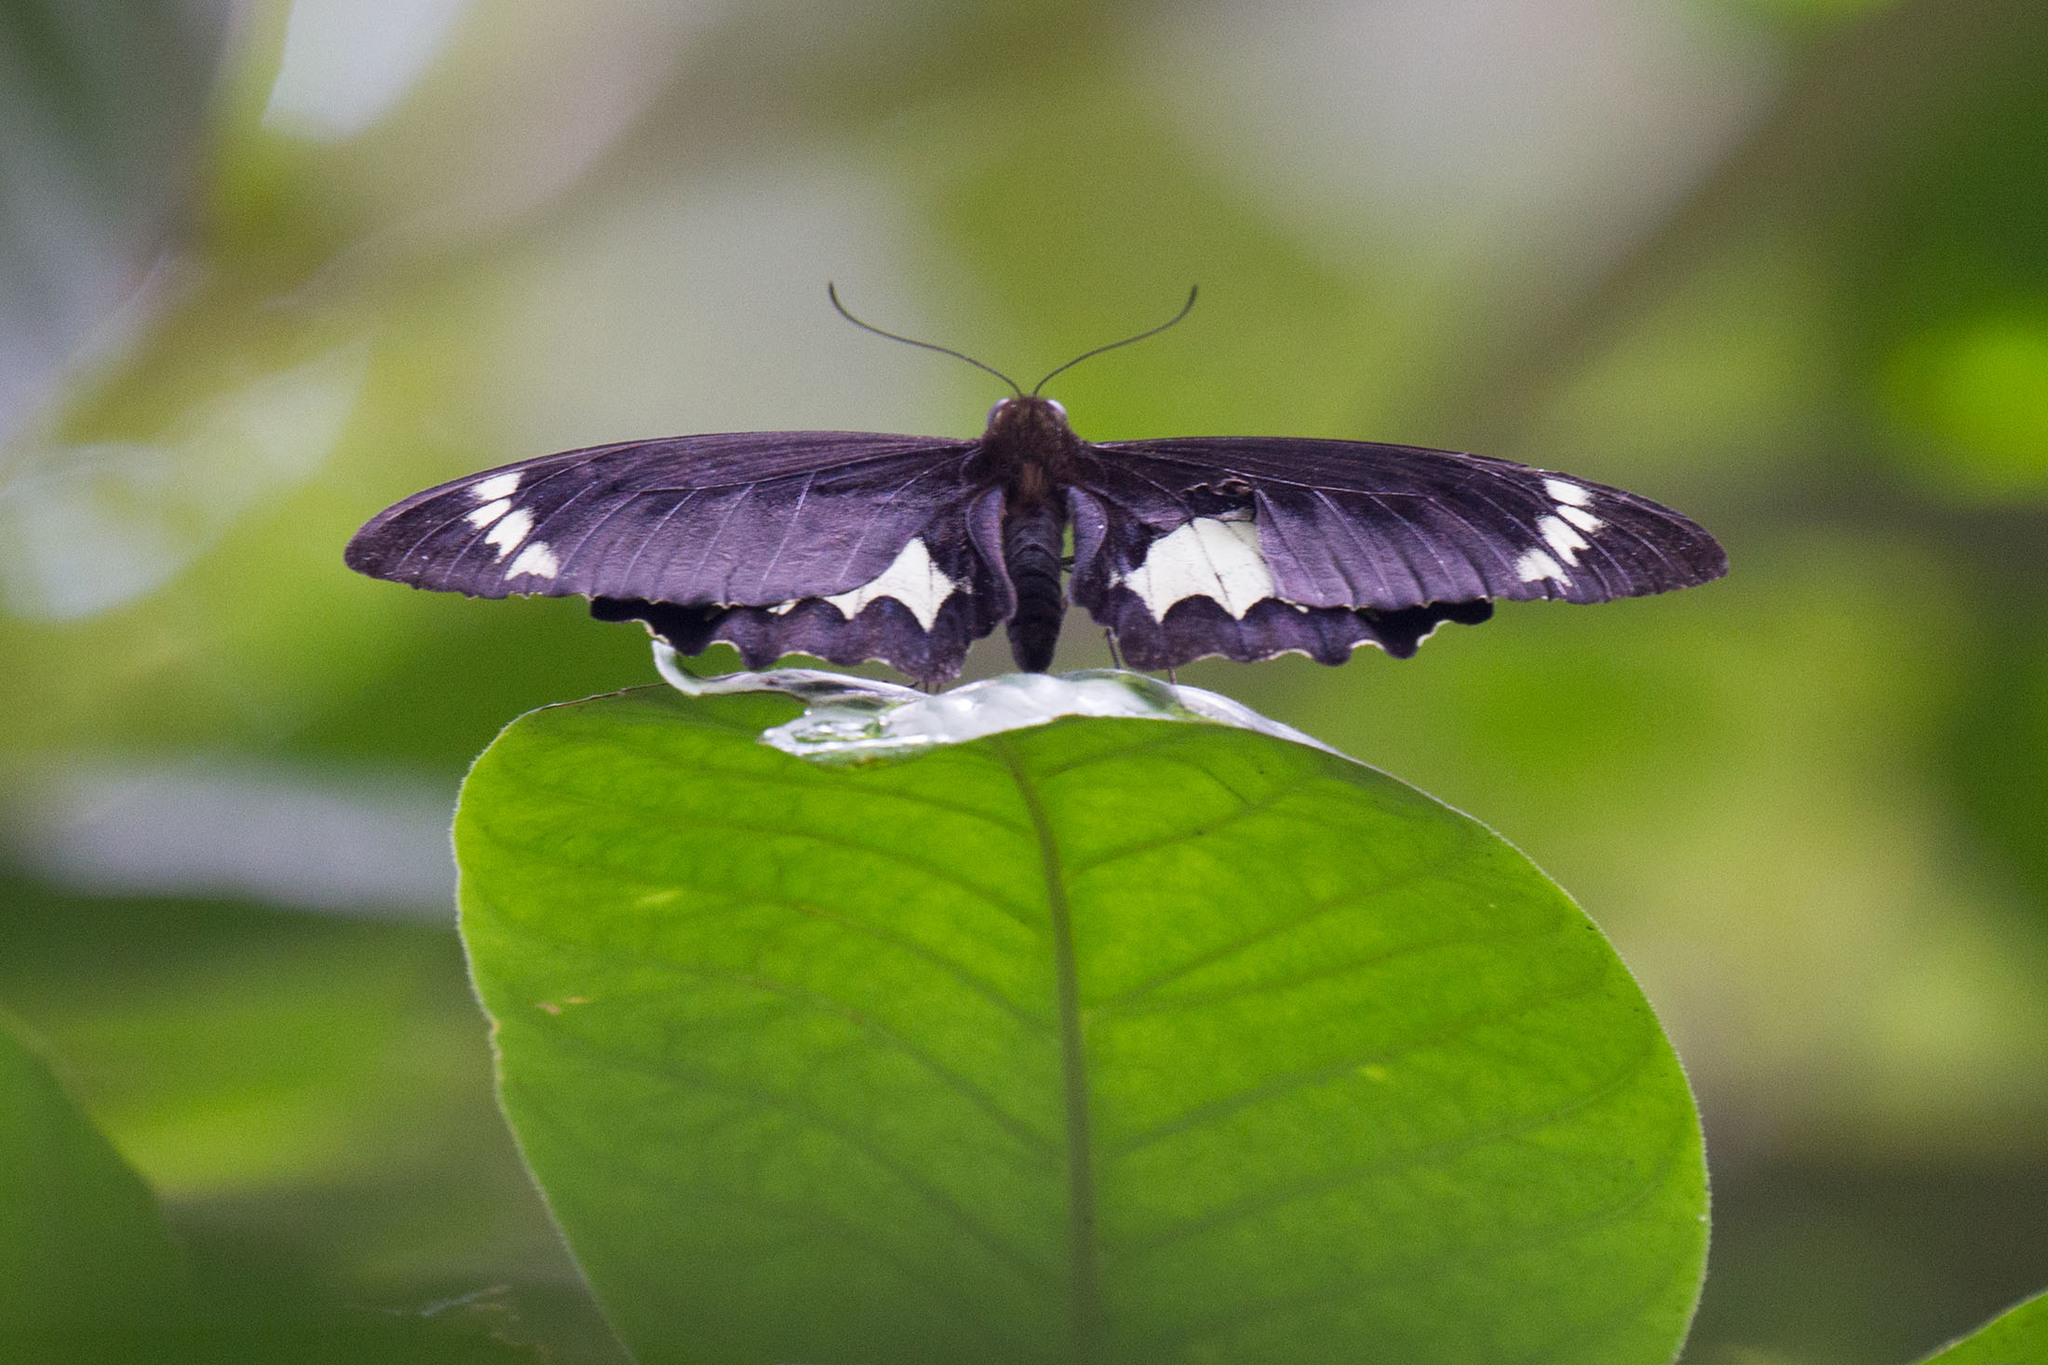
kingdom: Animalia
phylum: Arthropoda
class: Insecta
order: Lepidoptera
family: Papilionidae
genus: Papilio
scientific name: Papilio aegeus
